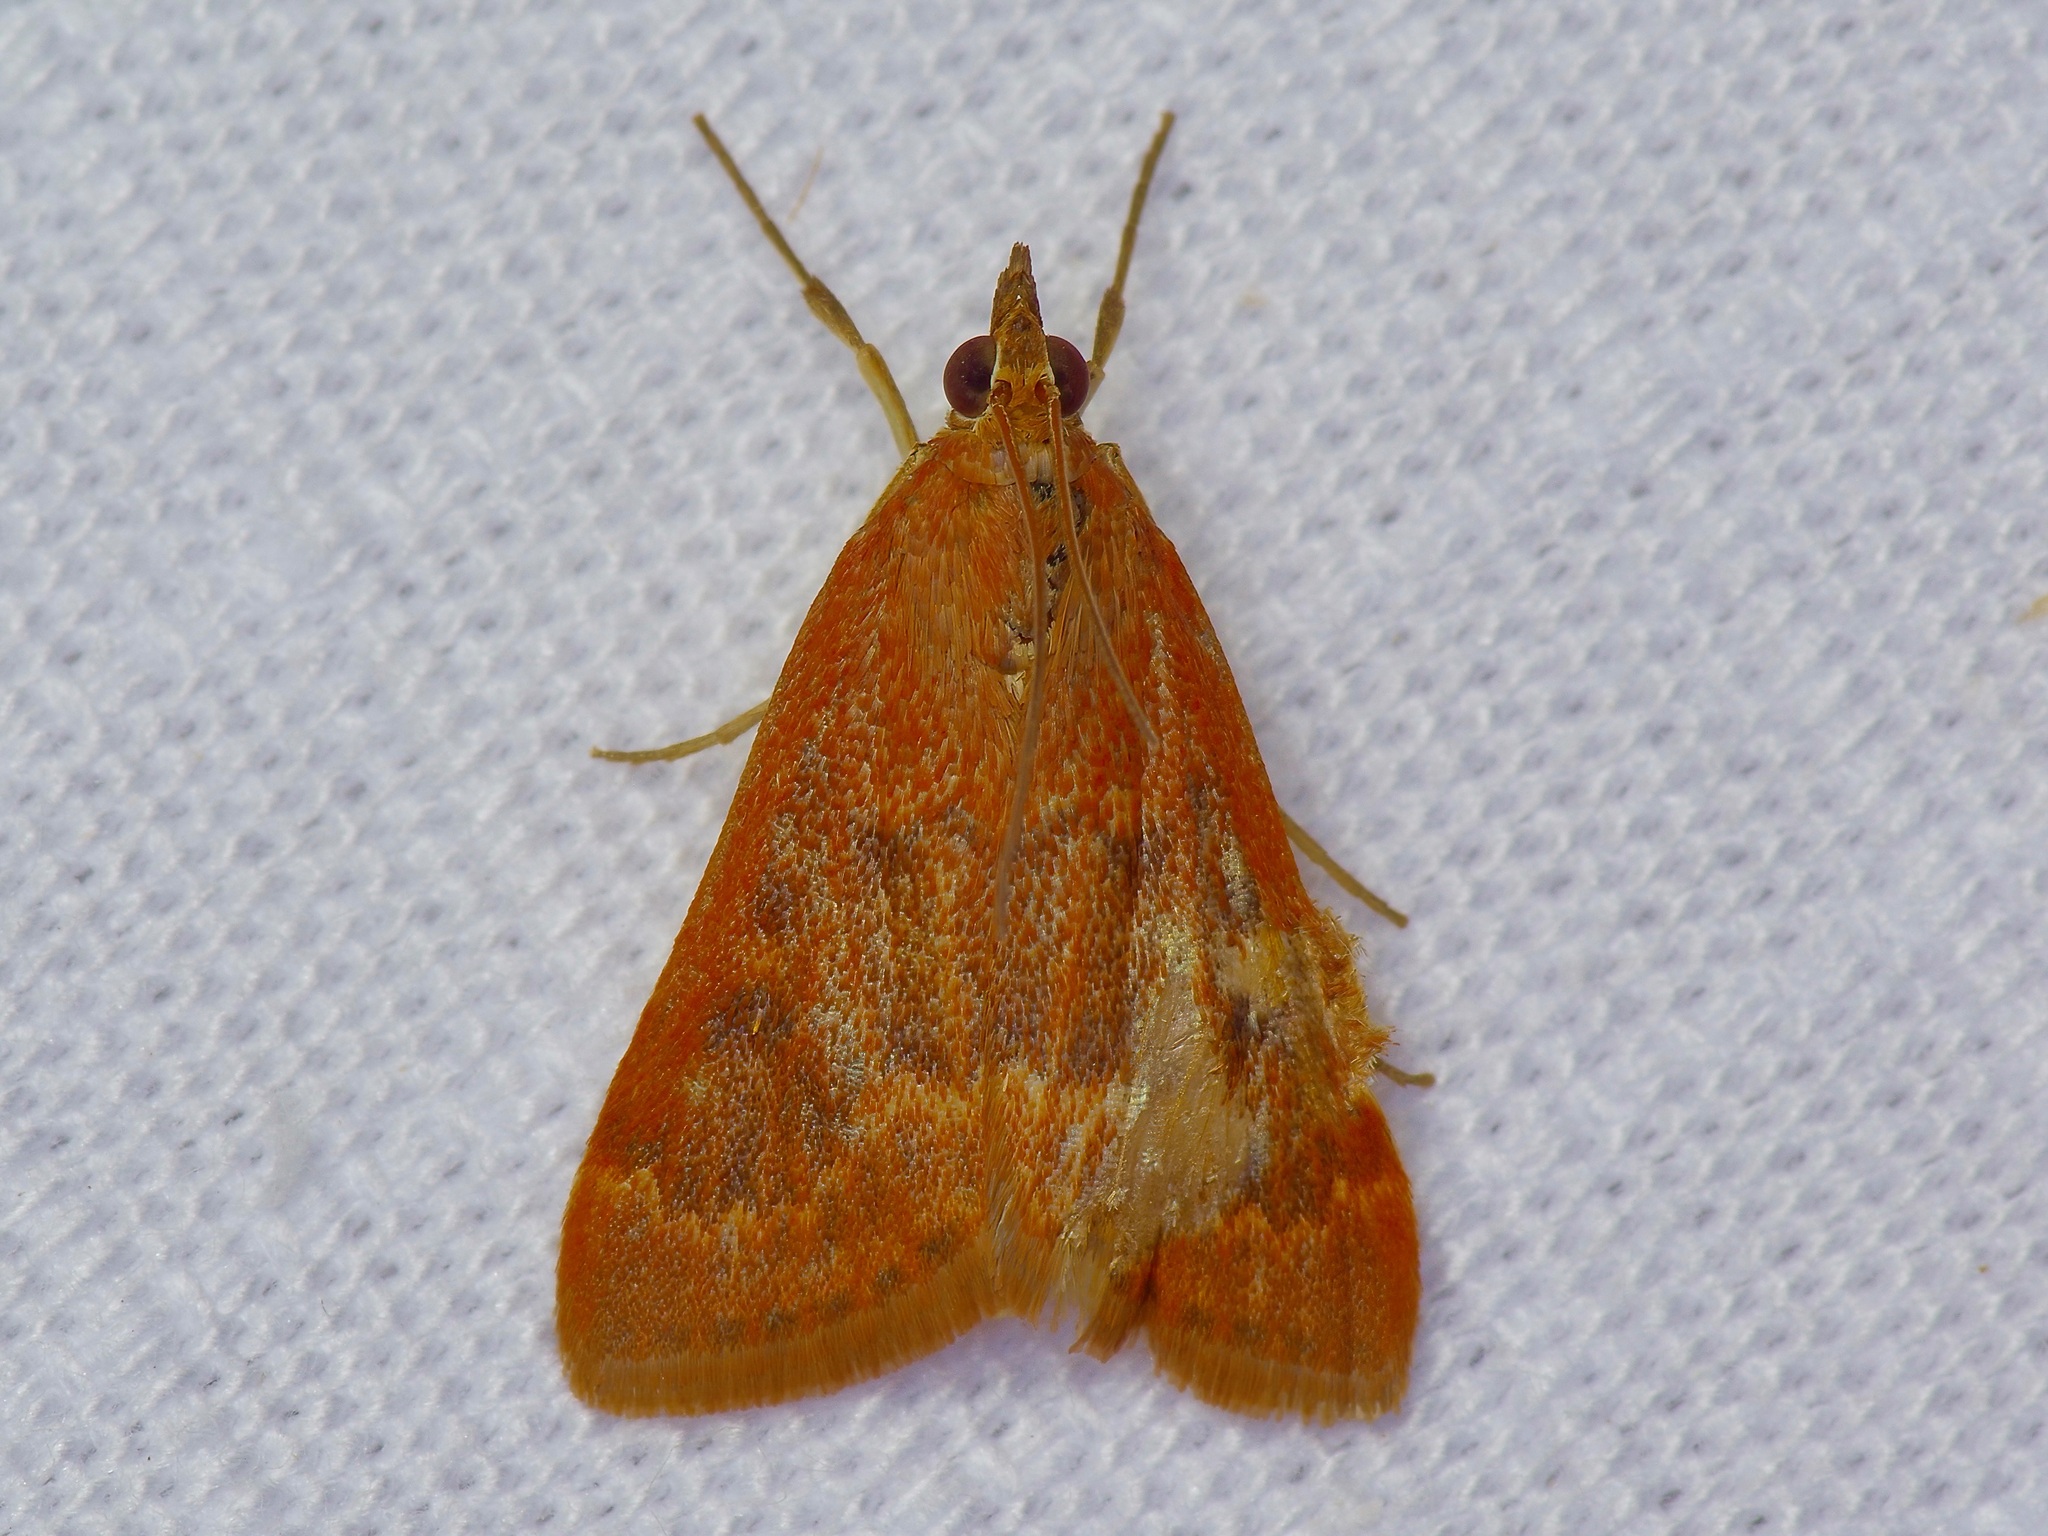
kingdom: Animalia
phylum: Arthropoda
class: Insecta
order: Lepidoptera
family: Crambidae
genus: Achyra
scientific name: Achyra rantalis
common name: Garden webworm
